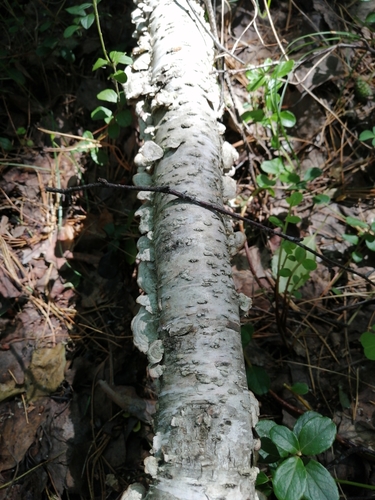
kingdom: Fungi
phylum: Basidiomycota
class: Agaricomycetes
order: Polyporales
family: Cerrenaceae
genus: Cerrena
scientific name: Cerrena unicolor
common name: Mossy maze polypore
